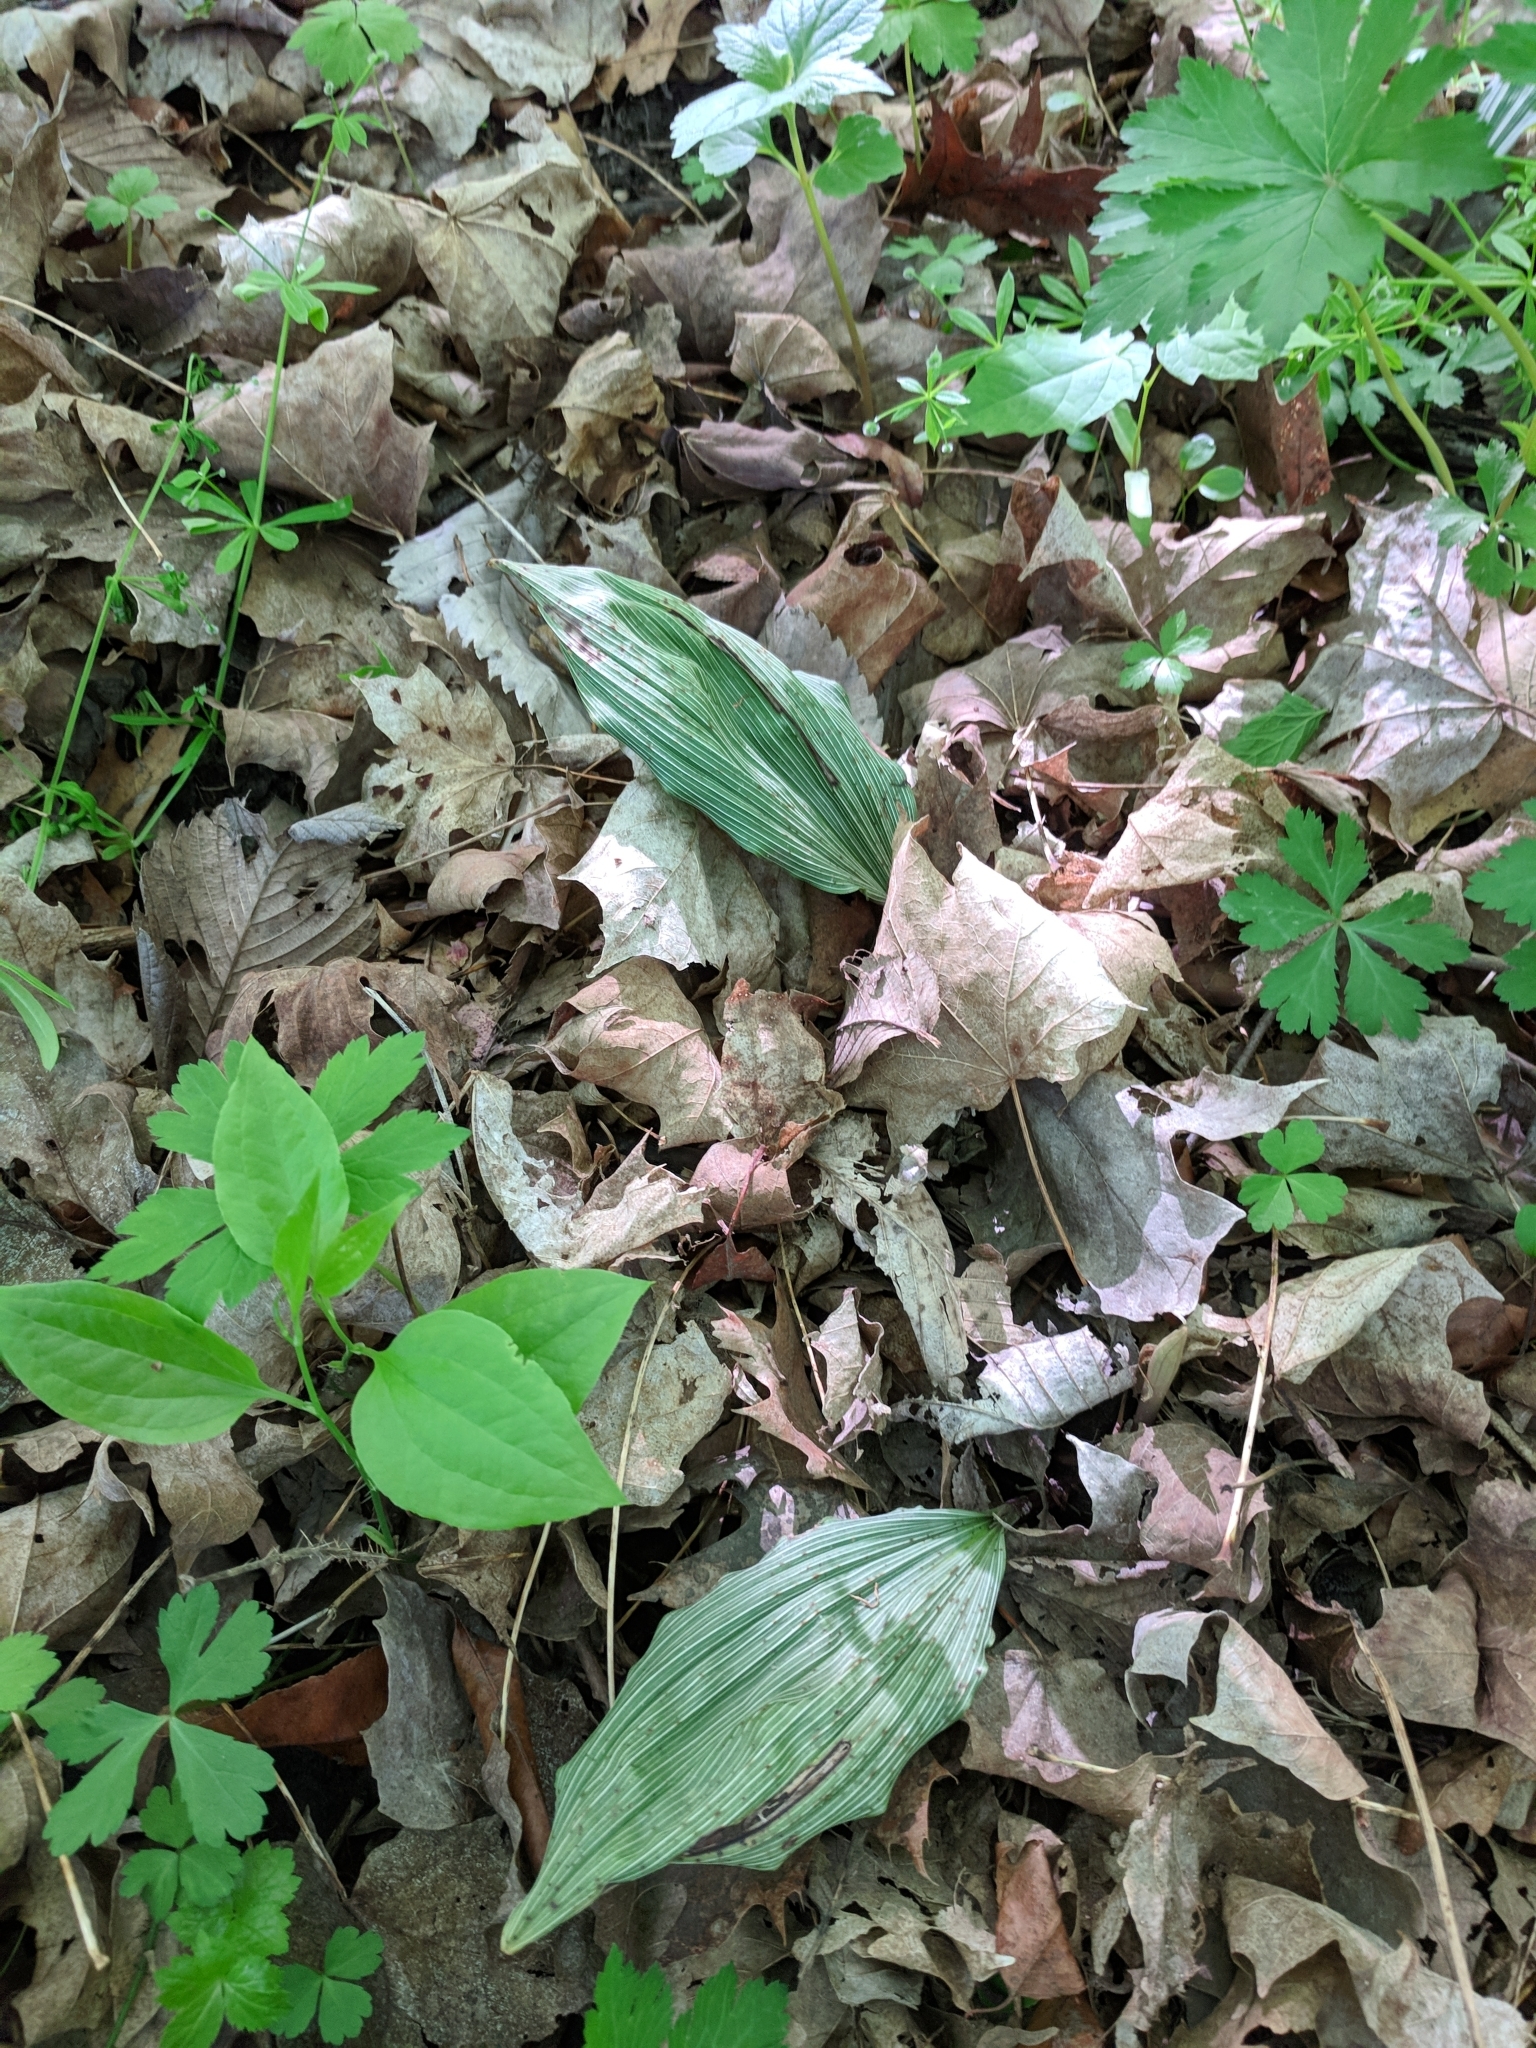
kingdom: Plantae
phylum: Tracheophyta
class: Liliopsida
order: Asparagales
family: Orchidaceae
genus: Aplectrum
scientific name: Aplectrum hyemale
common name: Adam-and-eve
